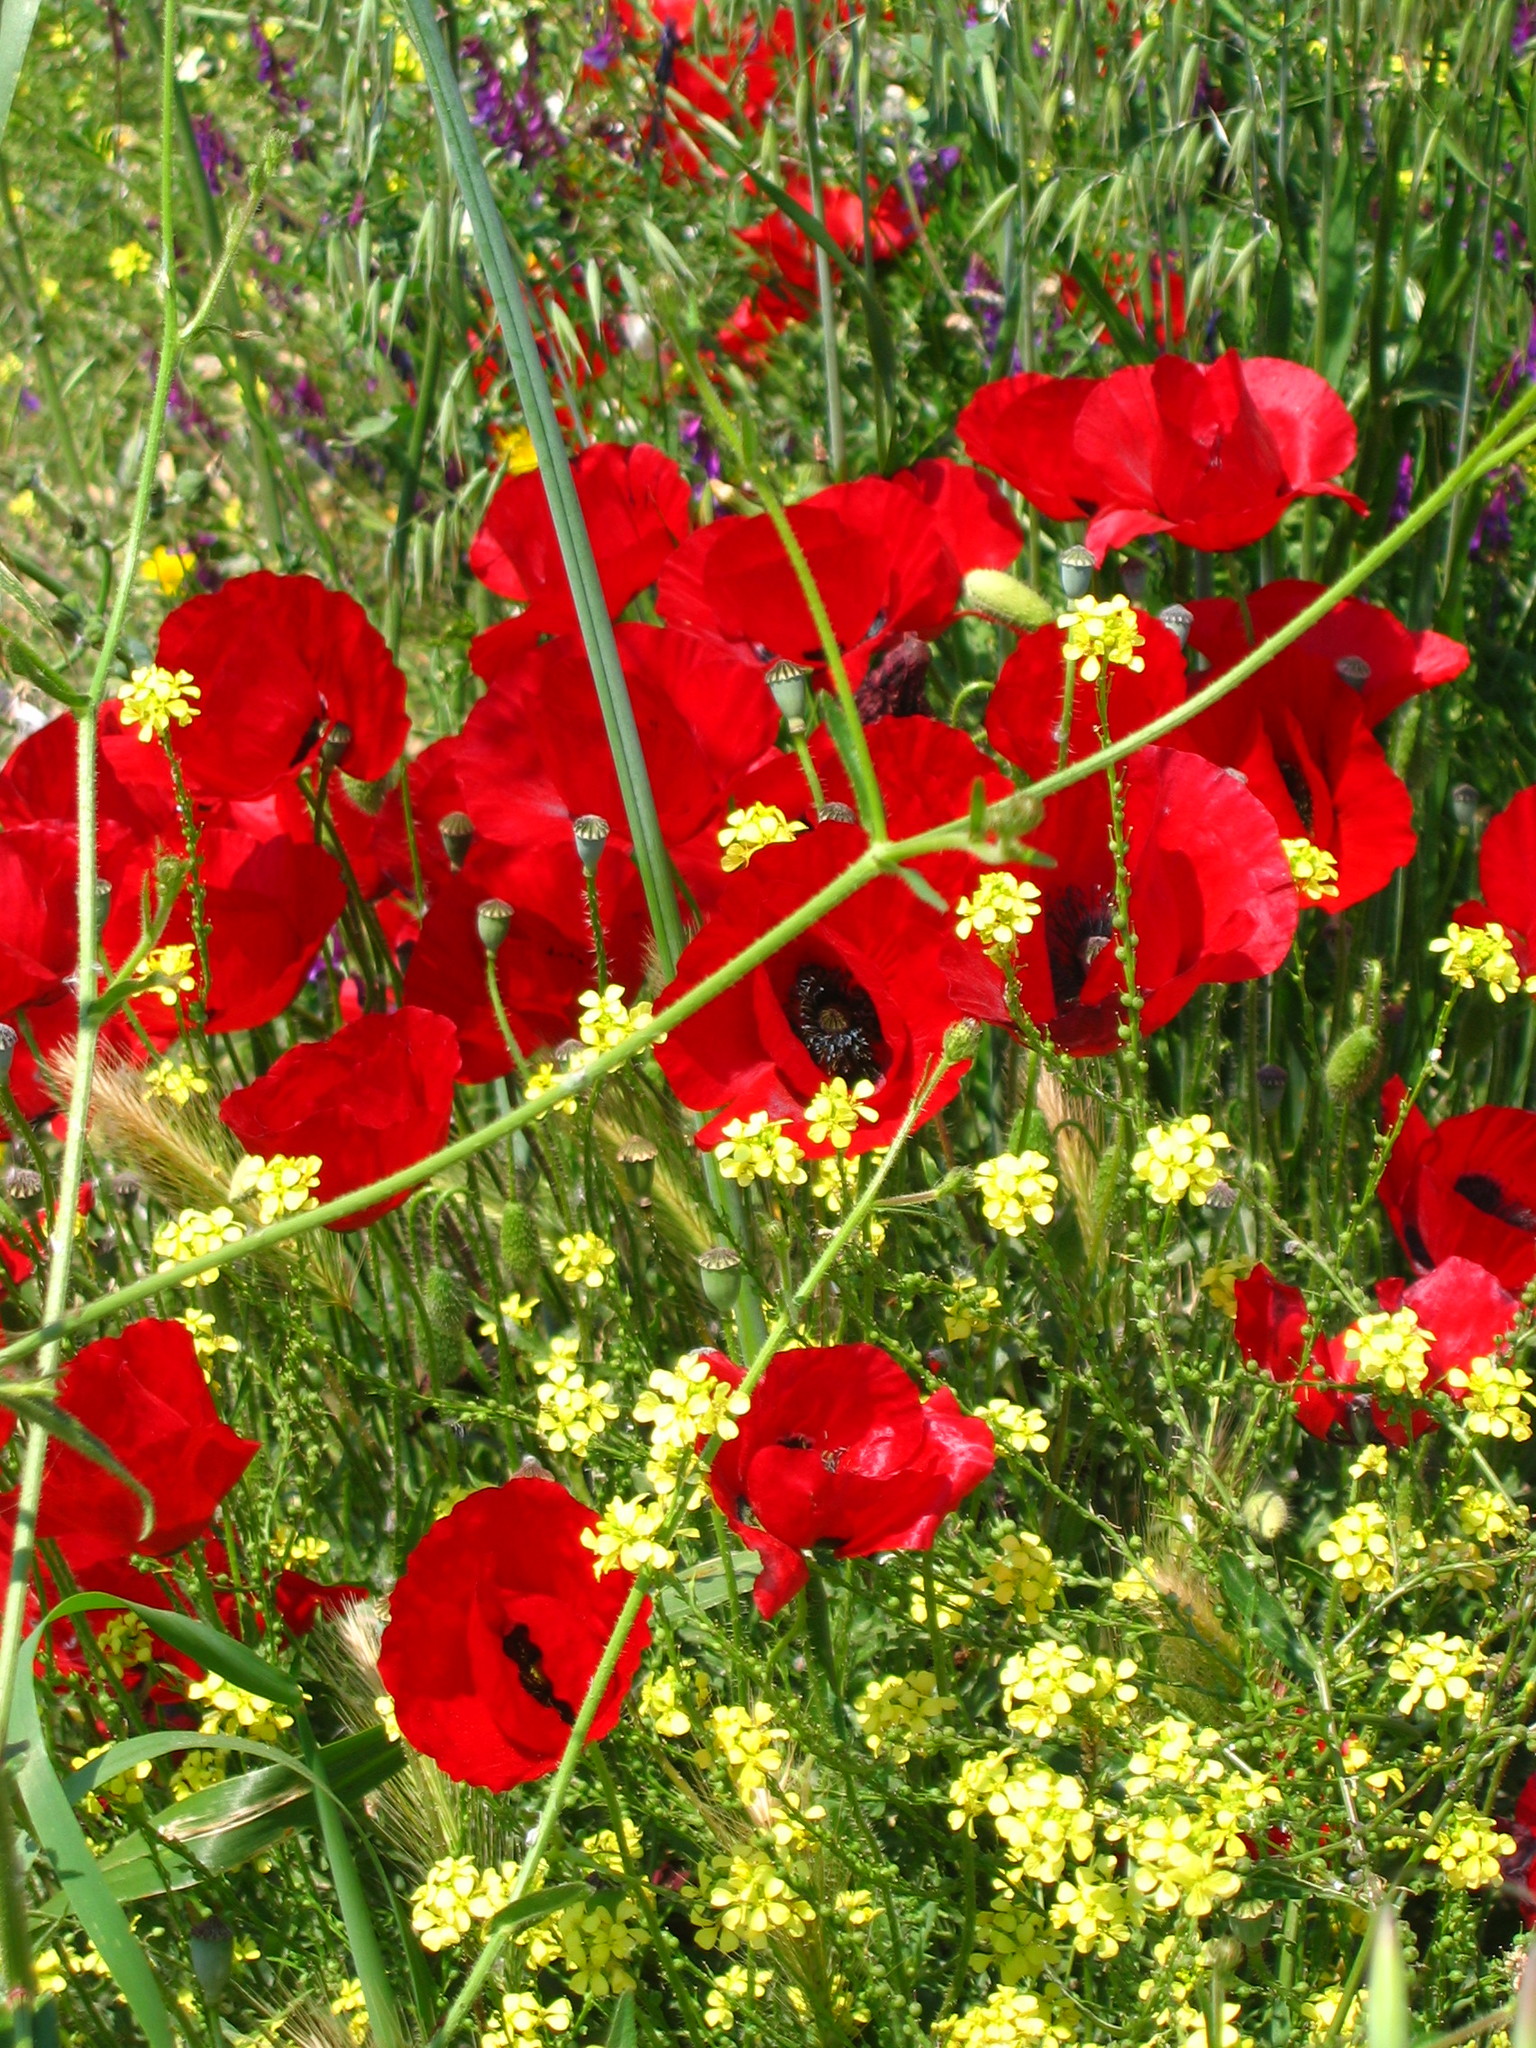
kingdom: Plantae
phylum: Tracheophyta
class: Magnoliopsida
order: Ranunculales
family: Papaveraceae
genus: Papaver
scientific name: Papaver rhoeas
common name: Corn poppy
